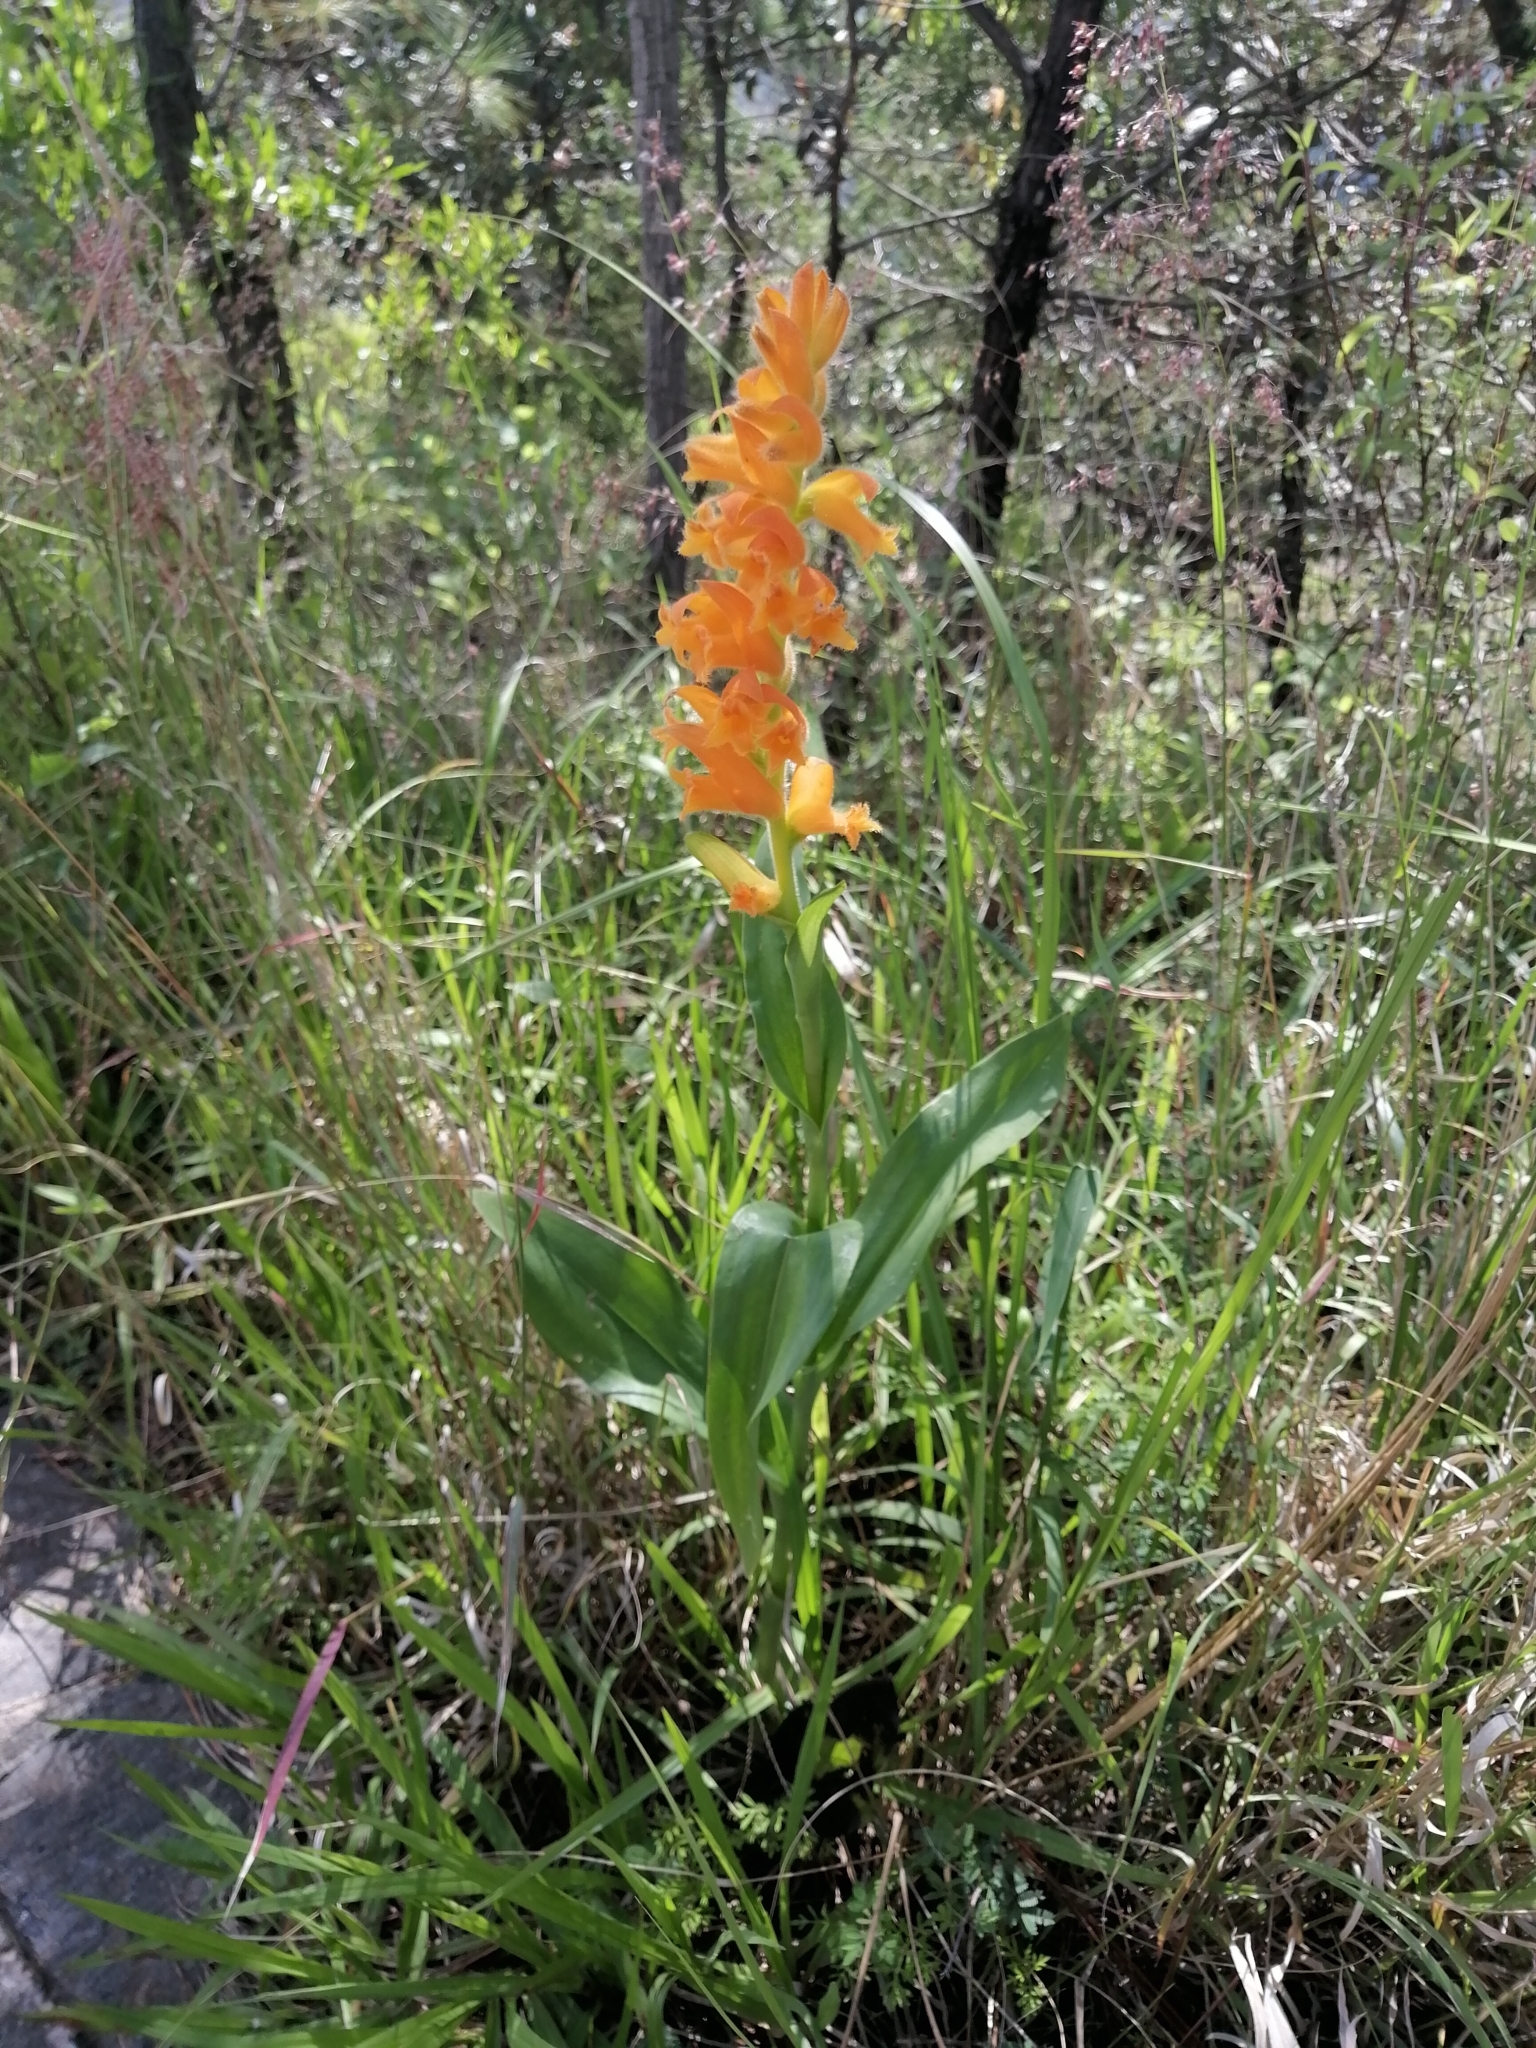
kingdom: Plantae
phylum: Tracheophyta
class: Liliopsida
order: Asparagales
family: Orchidaceae
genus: Dichromanthus
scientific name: Dichromanthus aurantiacus
